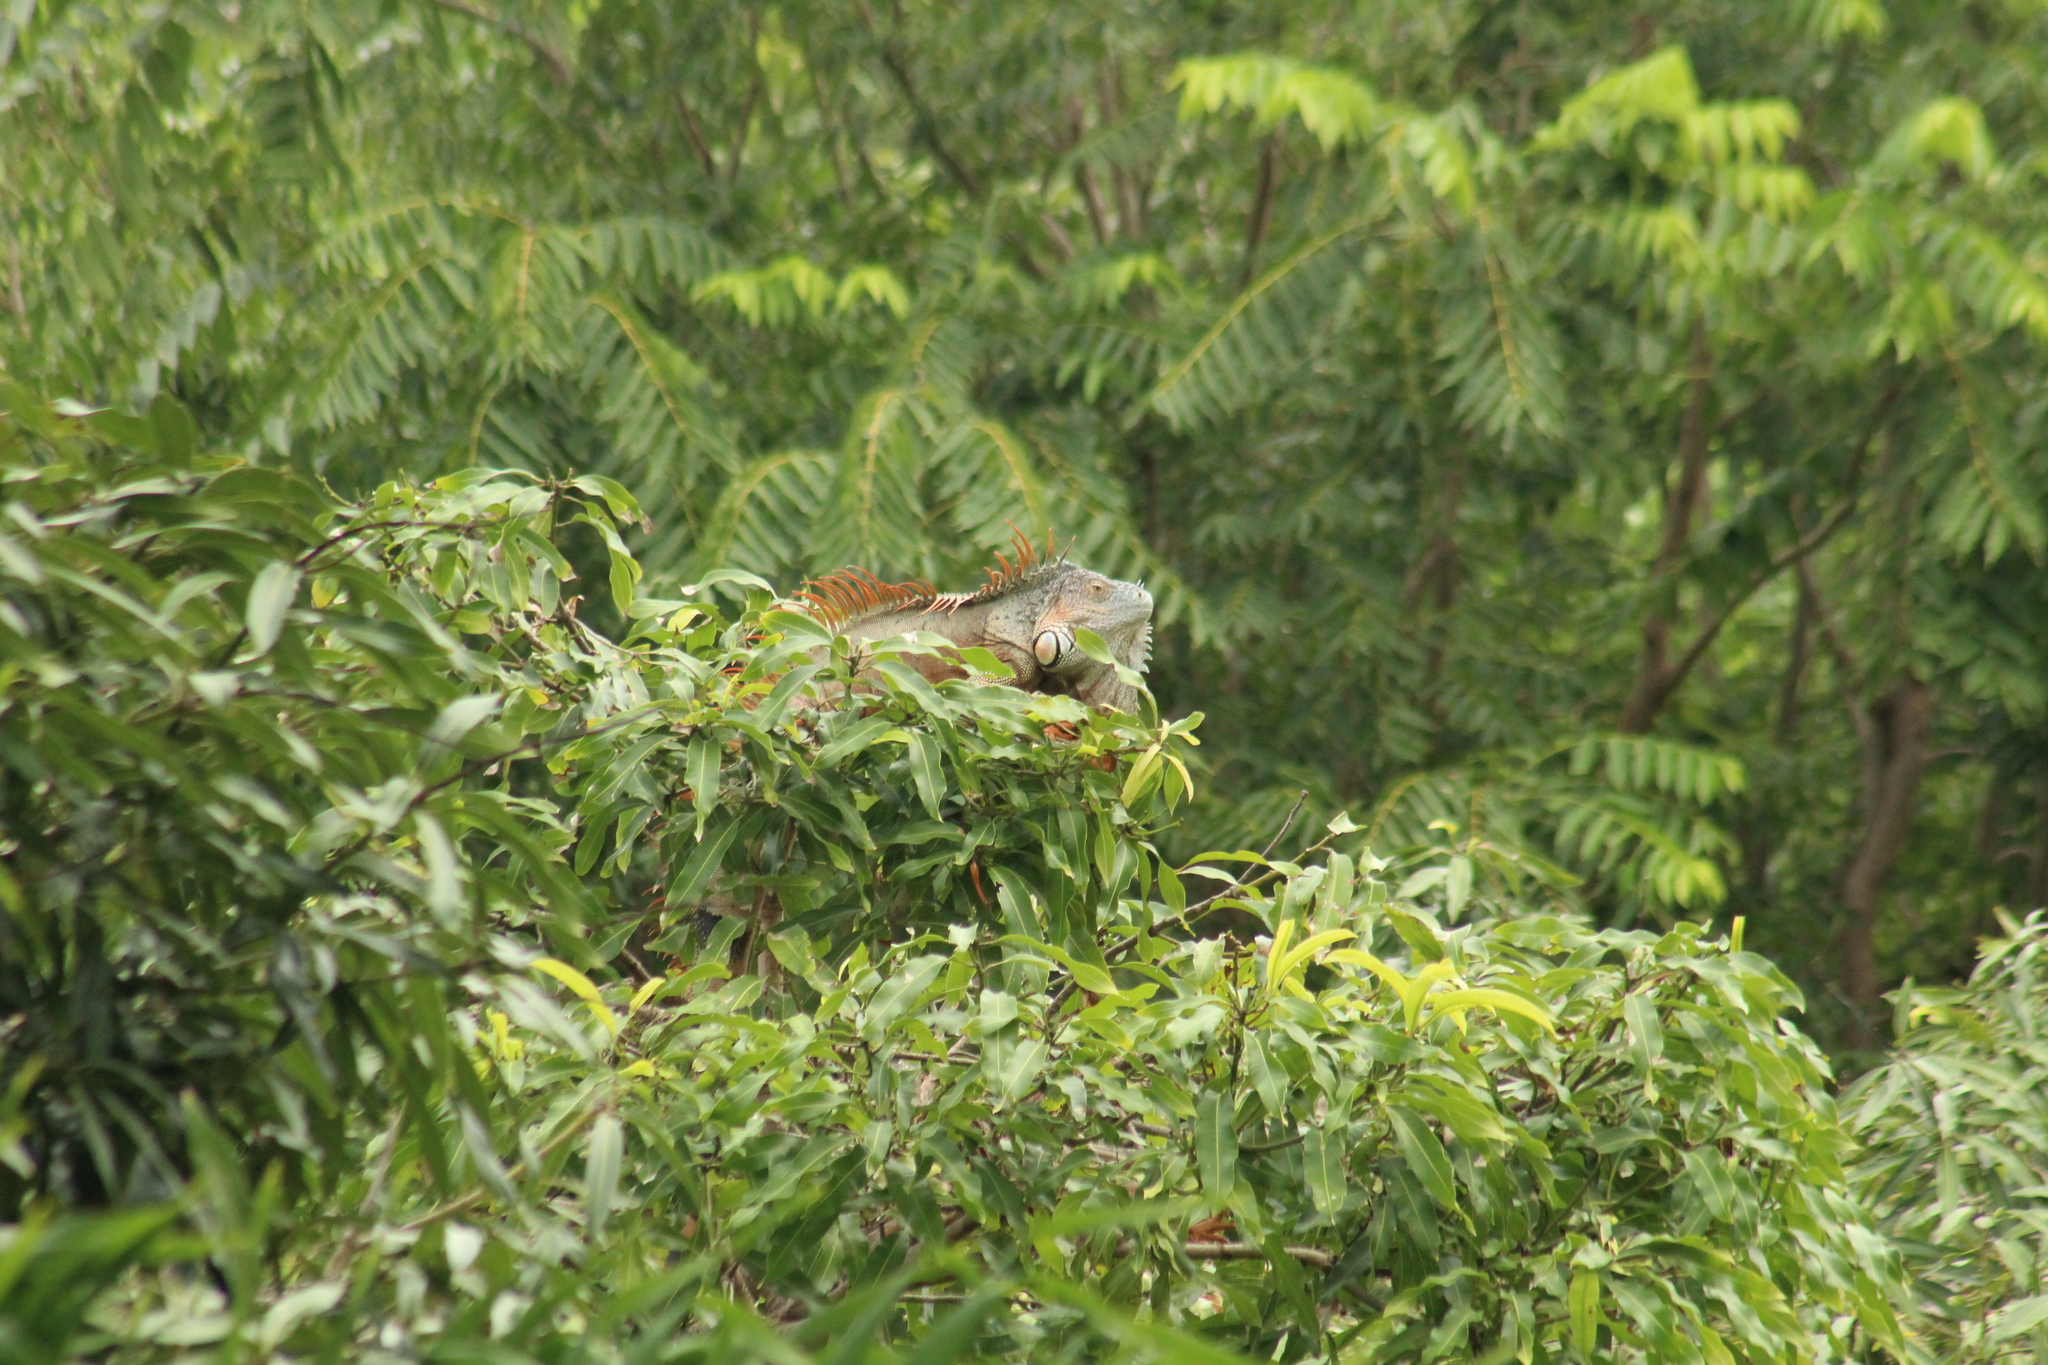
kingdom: Animalia
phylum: Chordata
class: Squamata
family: Iguanidae
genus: Iguana
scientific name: Iguana iguana
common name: Green iguana
